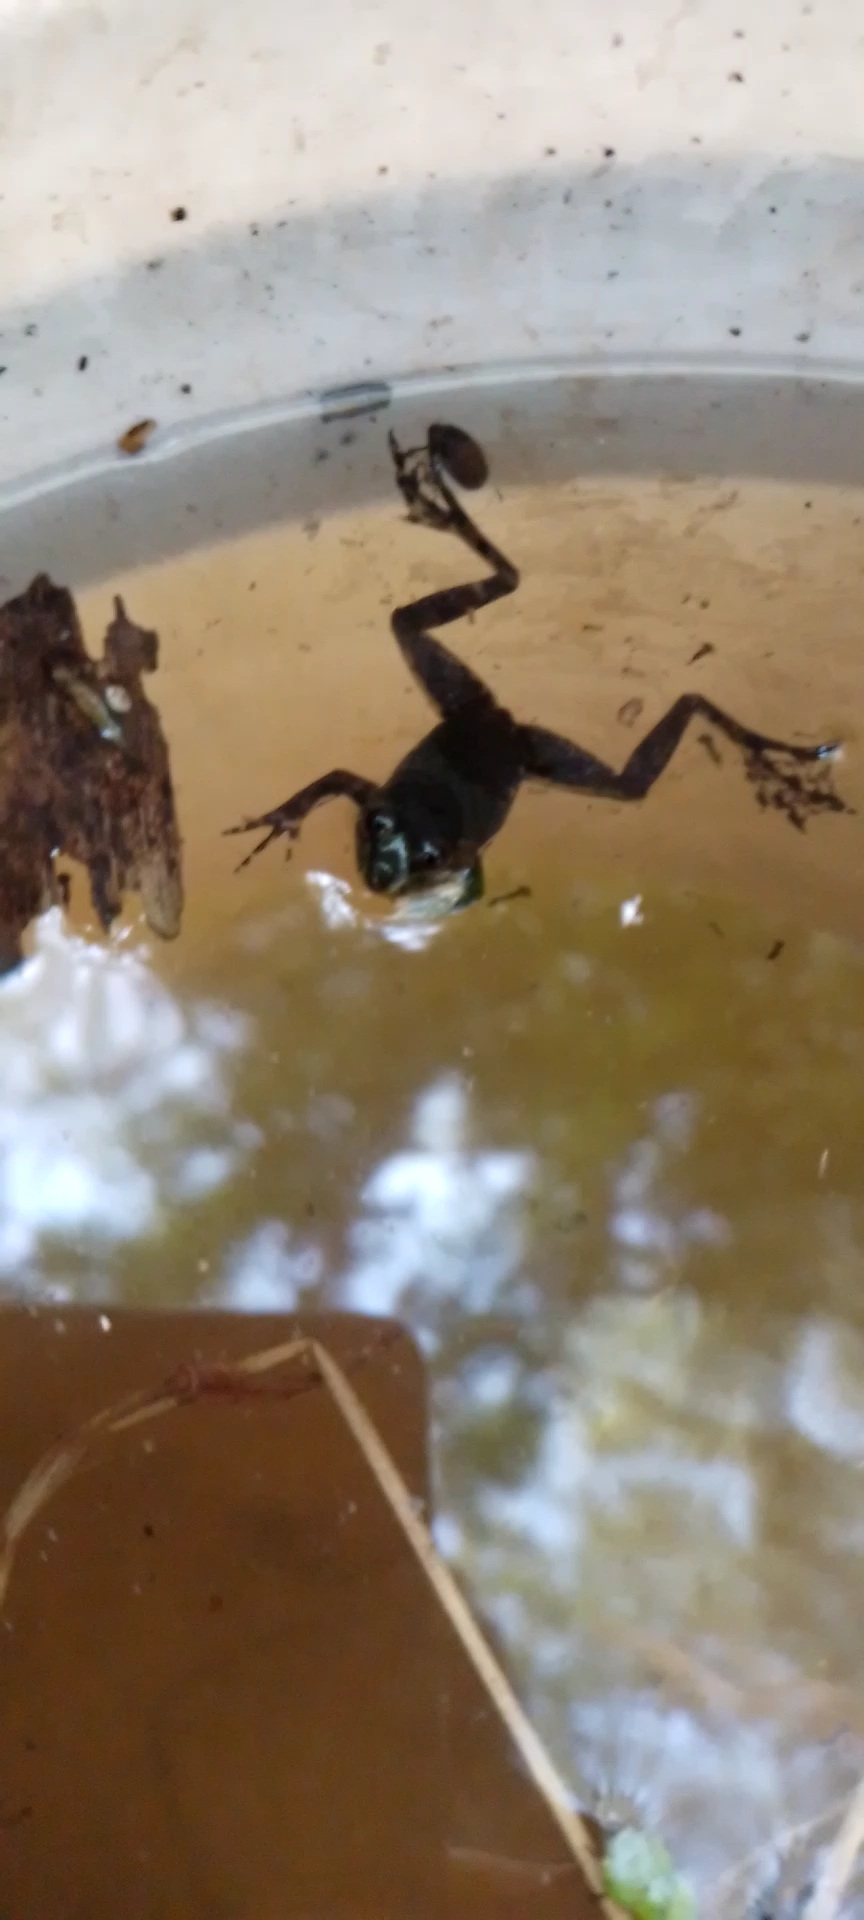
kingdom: Animalia
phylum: Chordata
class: Amphibia
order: Anura
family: Hylidae
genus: Pseudis
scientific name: Pseudis minuta
